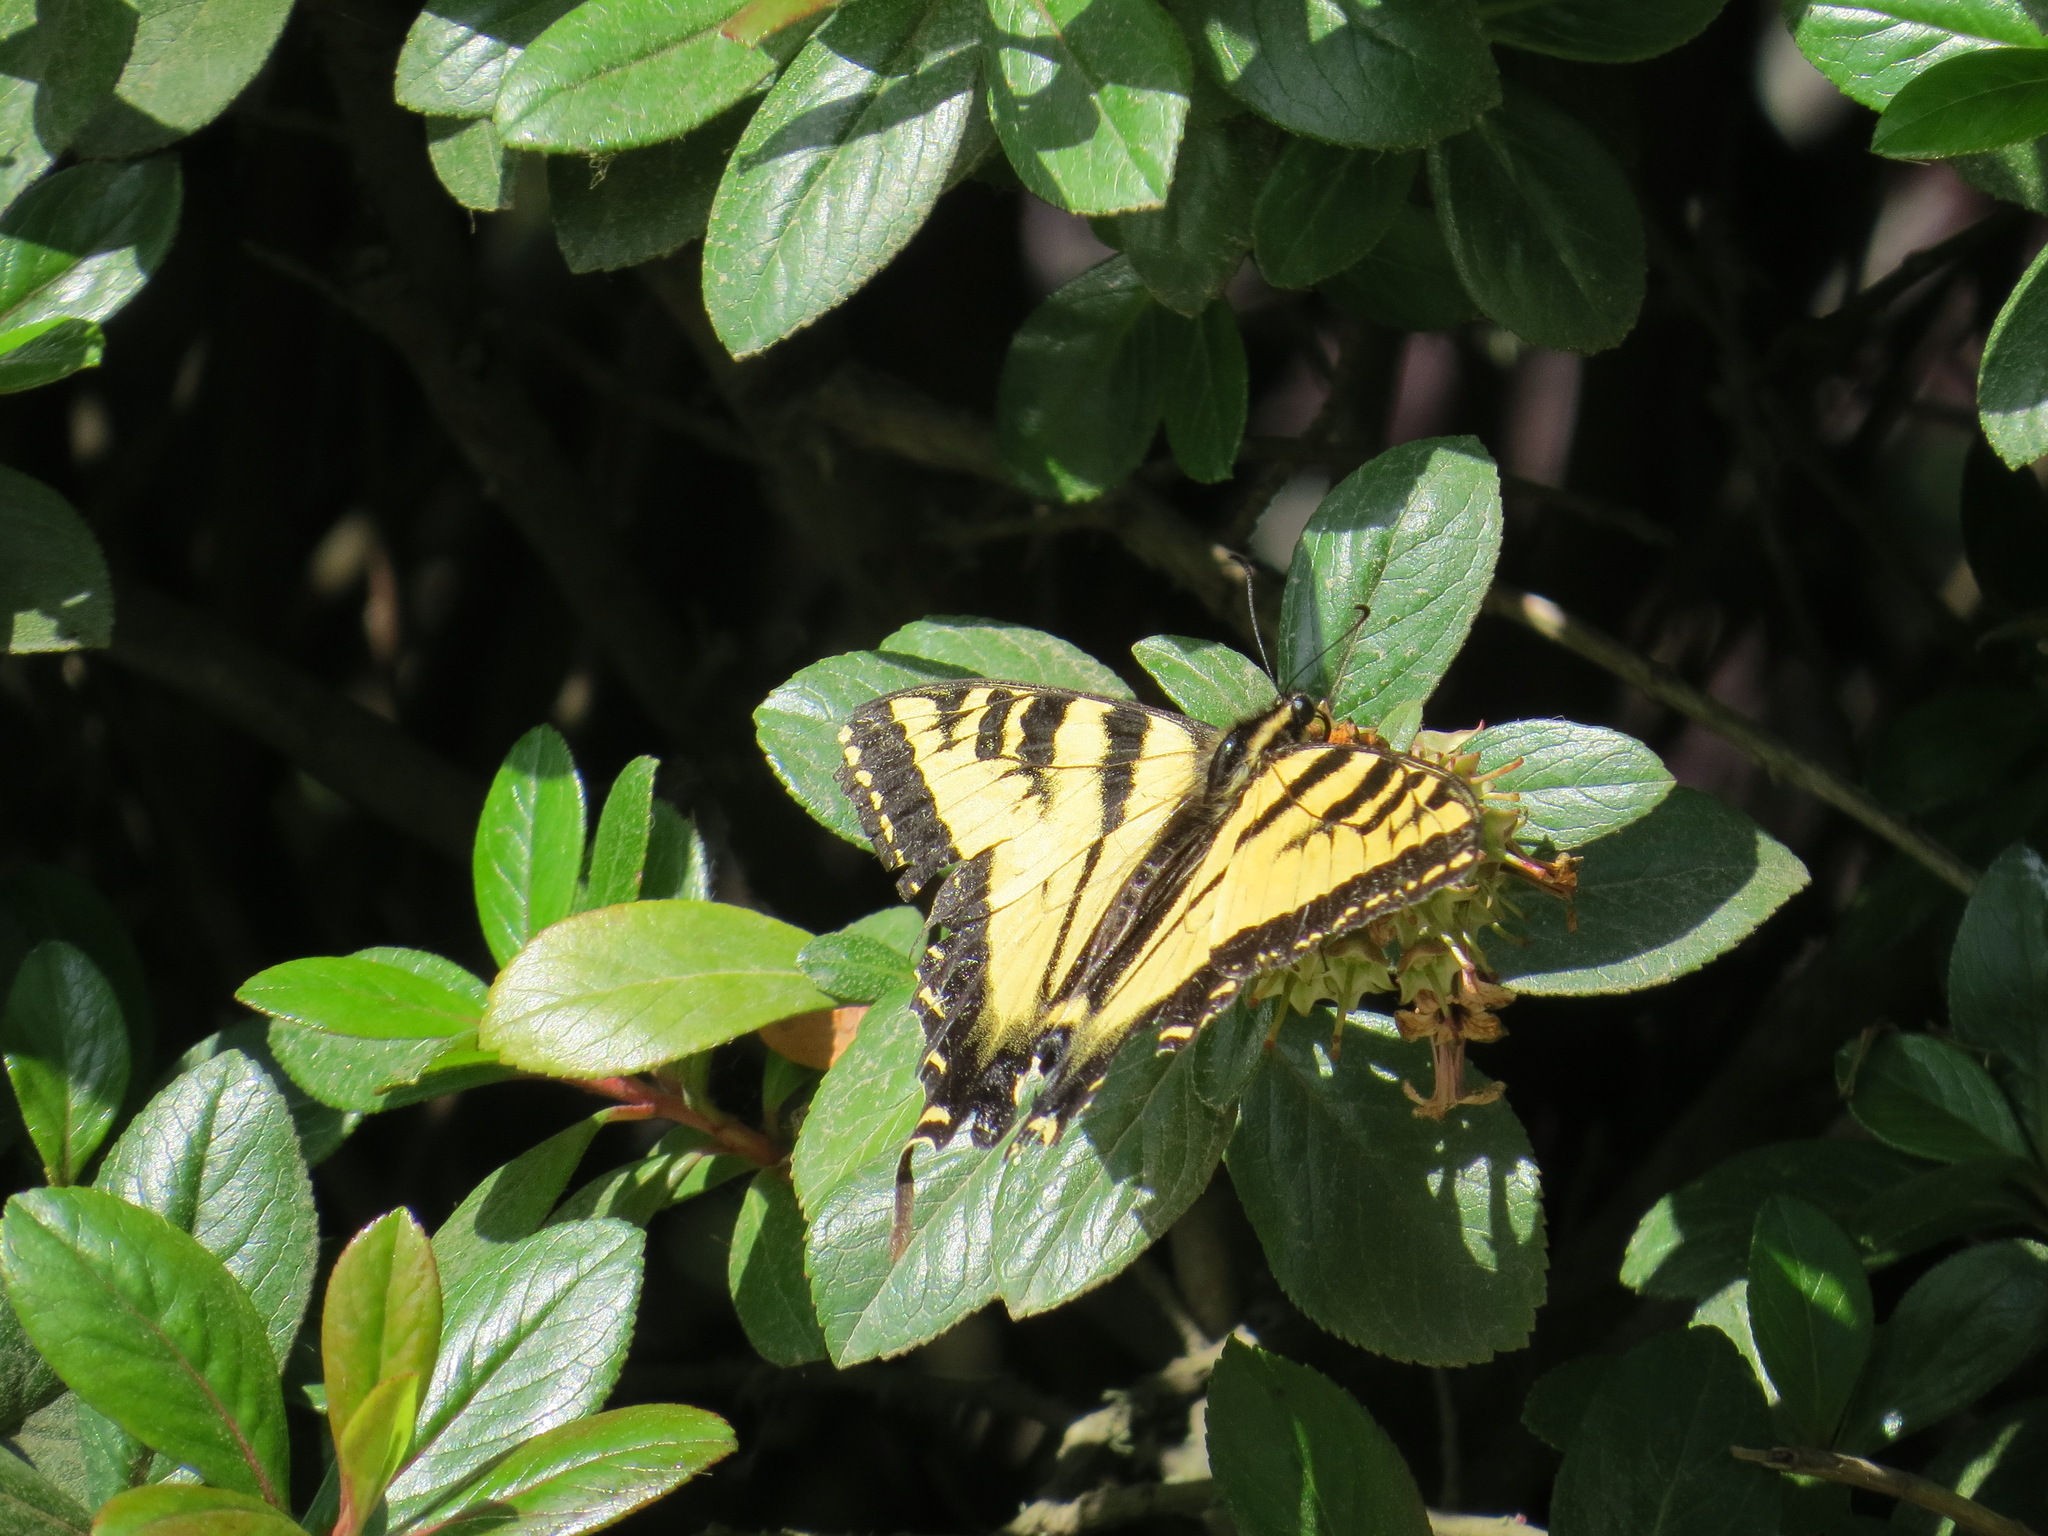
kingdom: Animalia
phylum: Arthropoda
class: Insecta
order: Lepidoptera
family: Papilionidae
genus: Papilio
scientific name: Papilio rutulus
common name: Western tiger swallowtail
